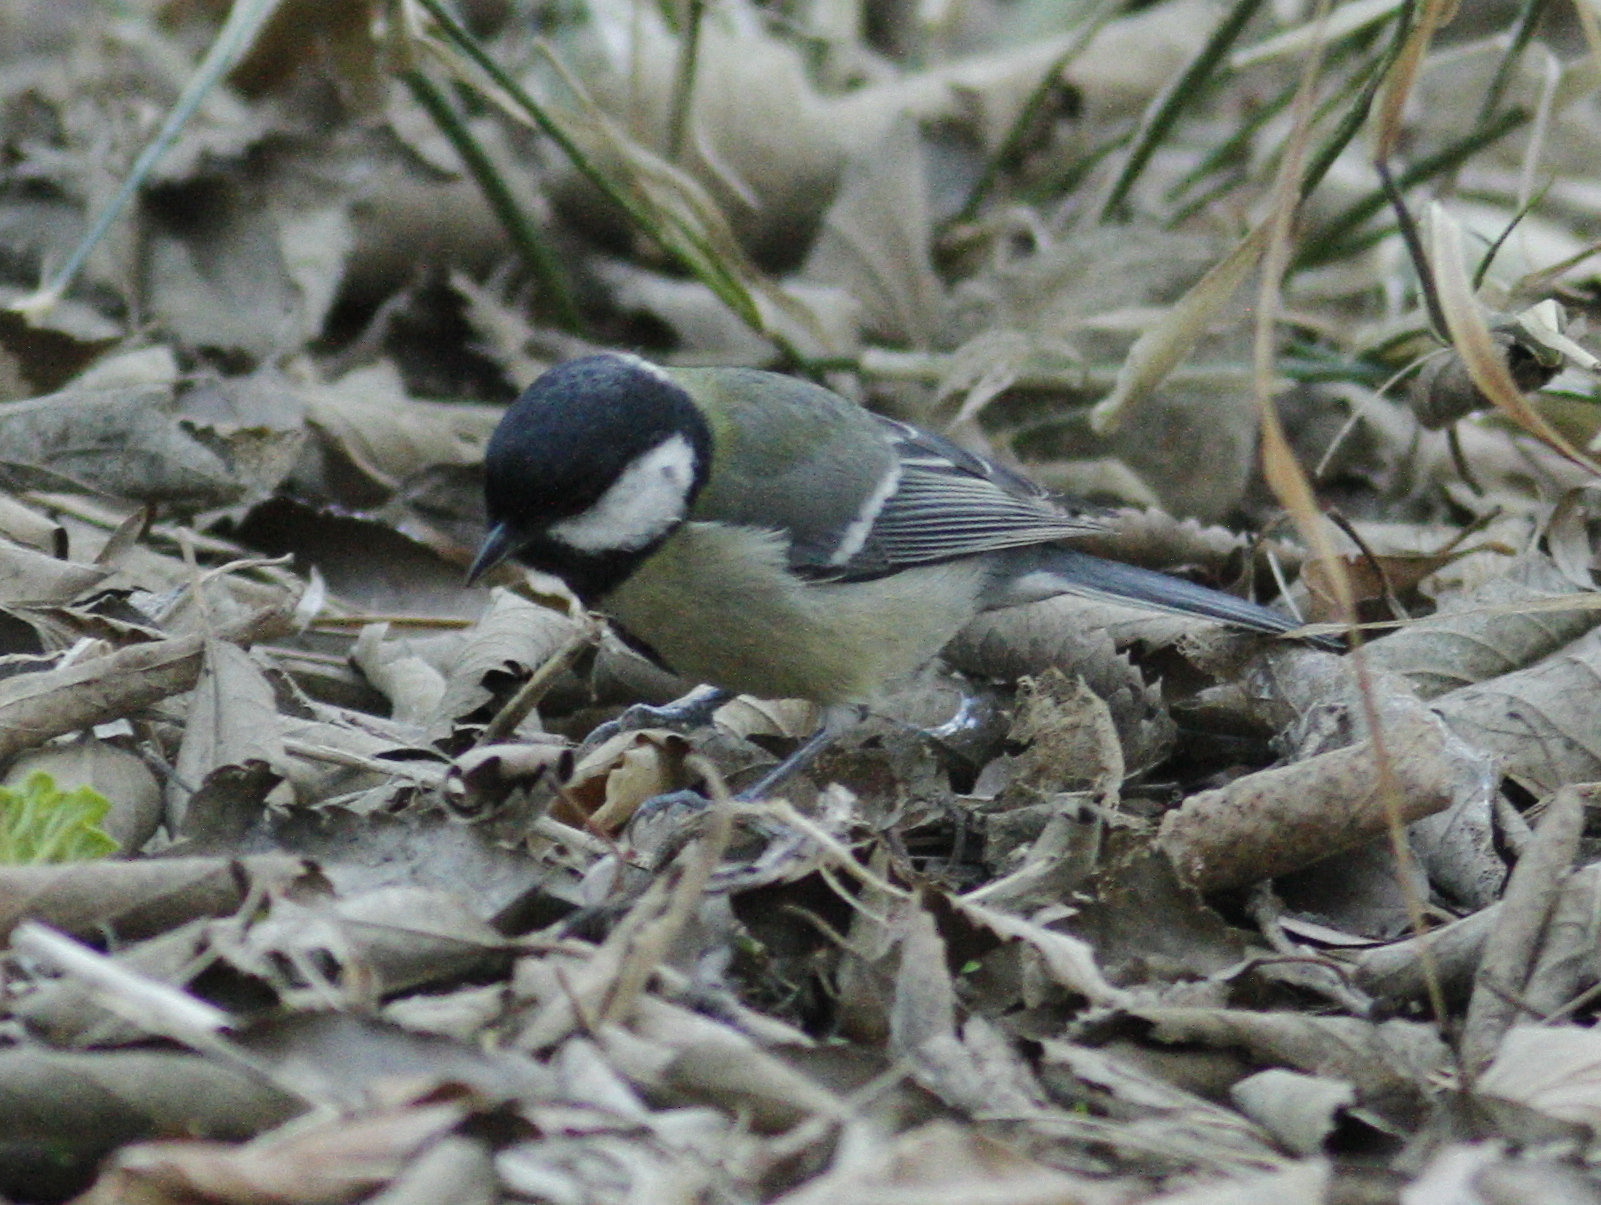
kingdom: Animalia
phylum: Chordata
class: Aves
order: Passeriformes
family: Paridae
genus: Parus
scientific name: Parus major
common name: Great tit
